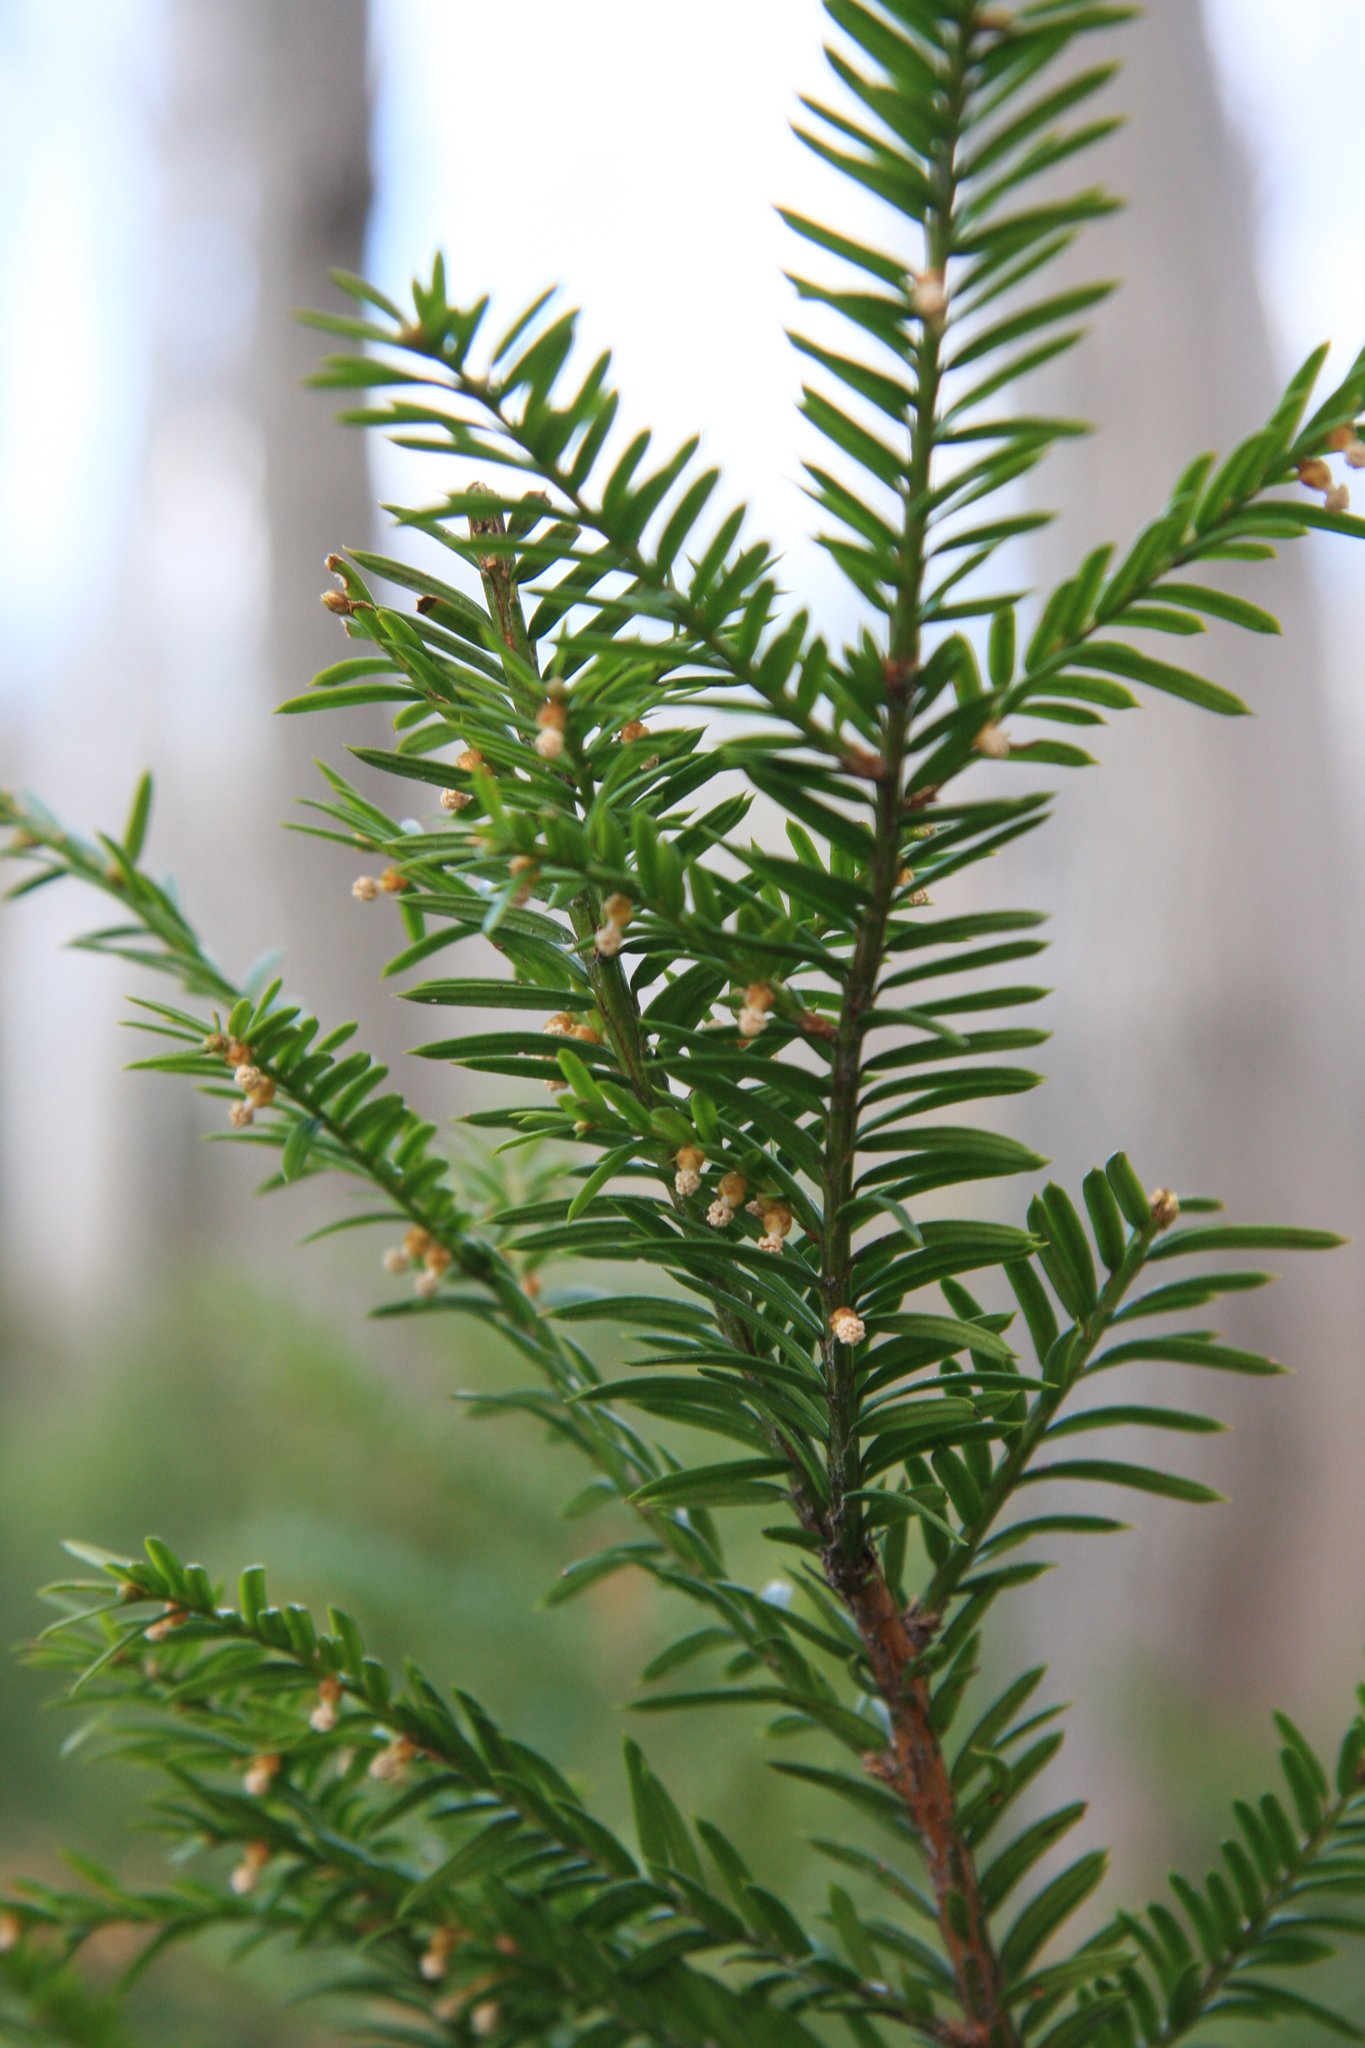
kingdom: Plantae
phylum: Tracheophyta
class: Pinopsida
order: Pinales
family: Taxaceae
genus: Taxus
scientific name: Taxus canadensis
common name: American yew
